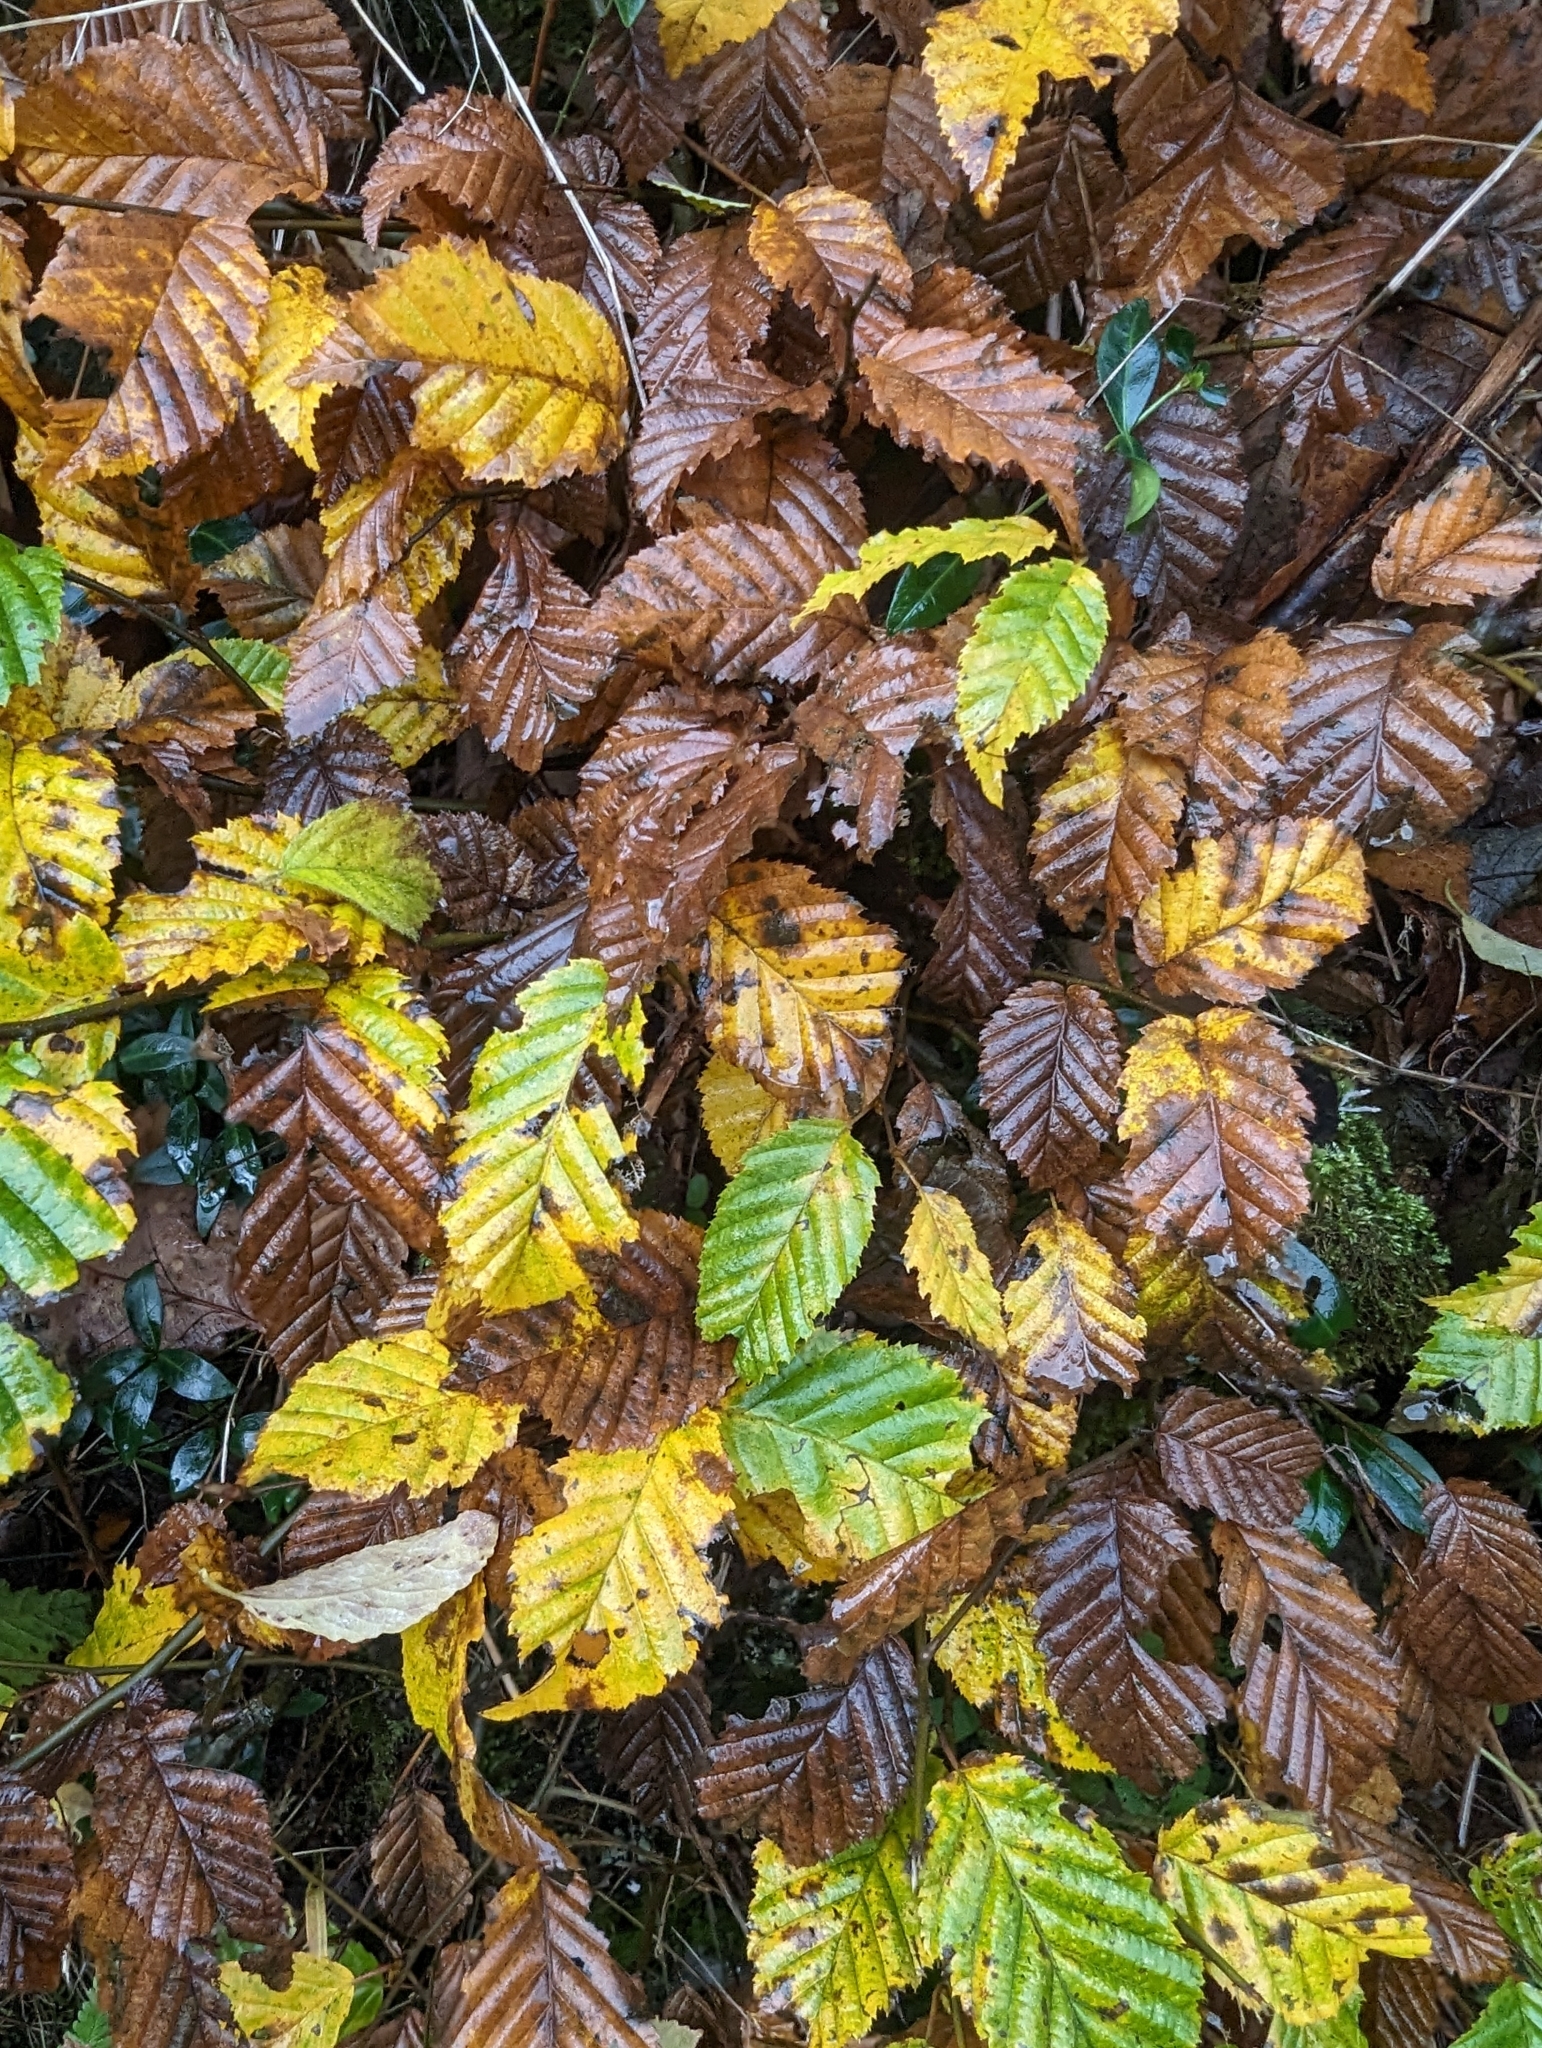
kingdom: Plantae
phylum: Tracheophyta
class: Magnoliopsida
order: Fagales
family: Betulaceae
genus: Carpinus
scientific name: Carpinus betulus
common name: Hornbeam
